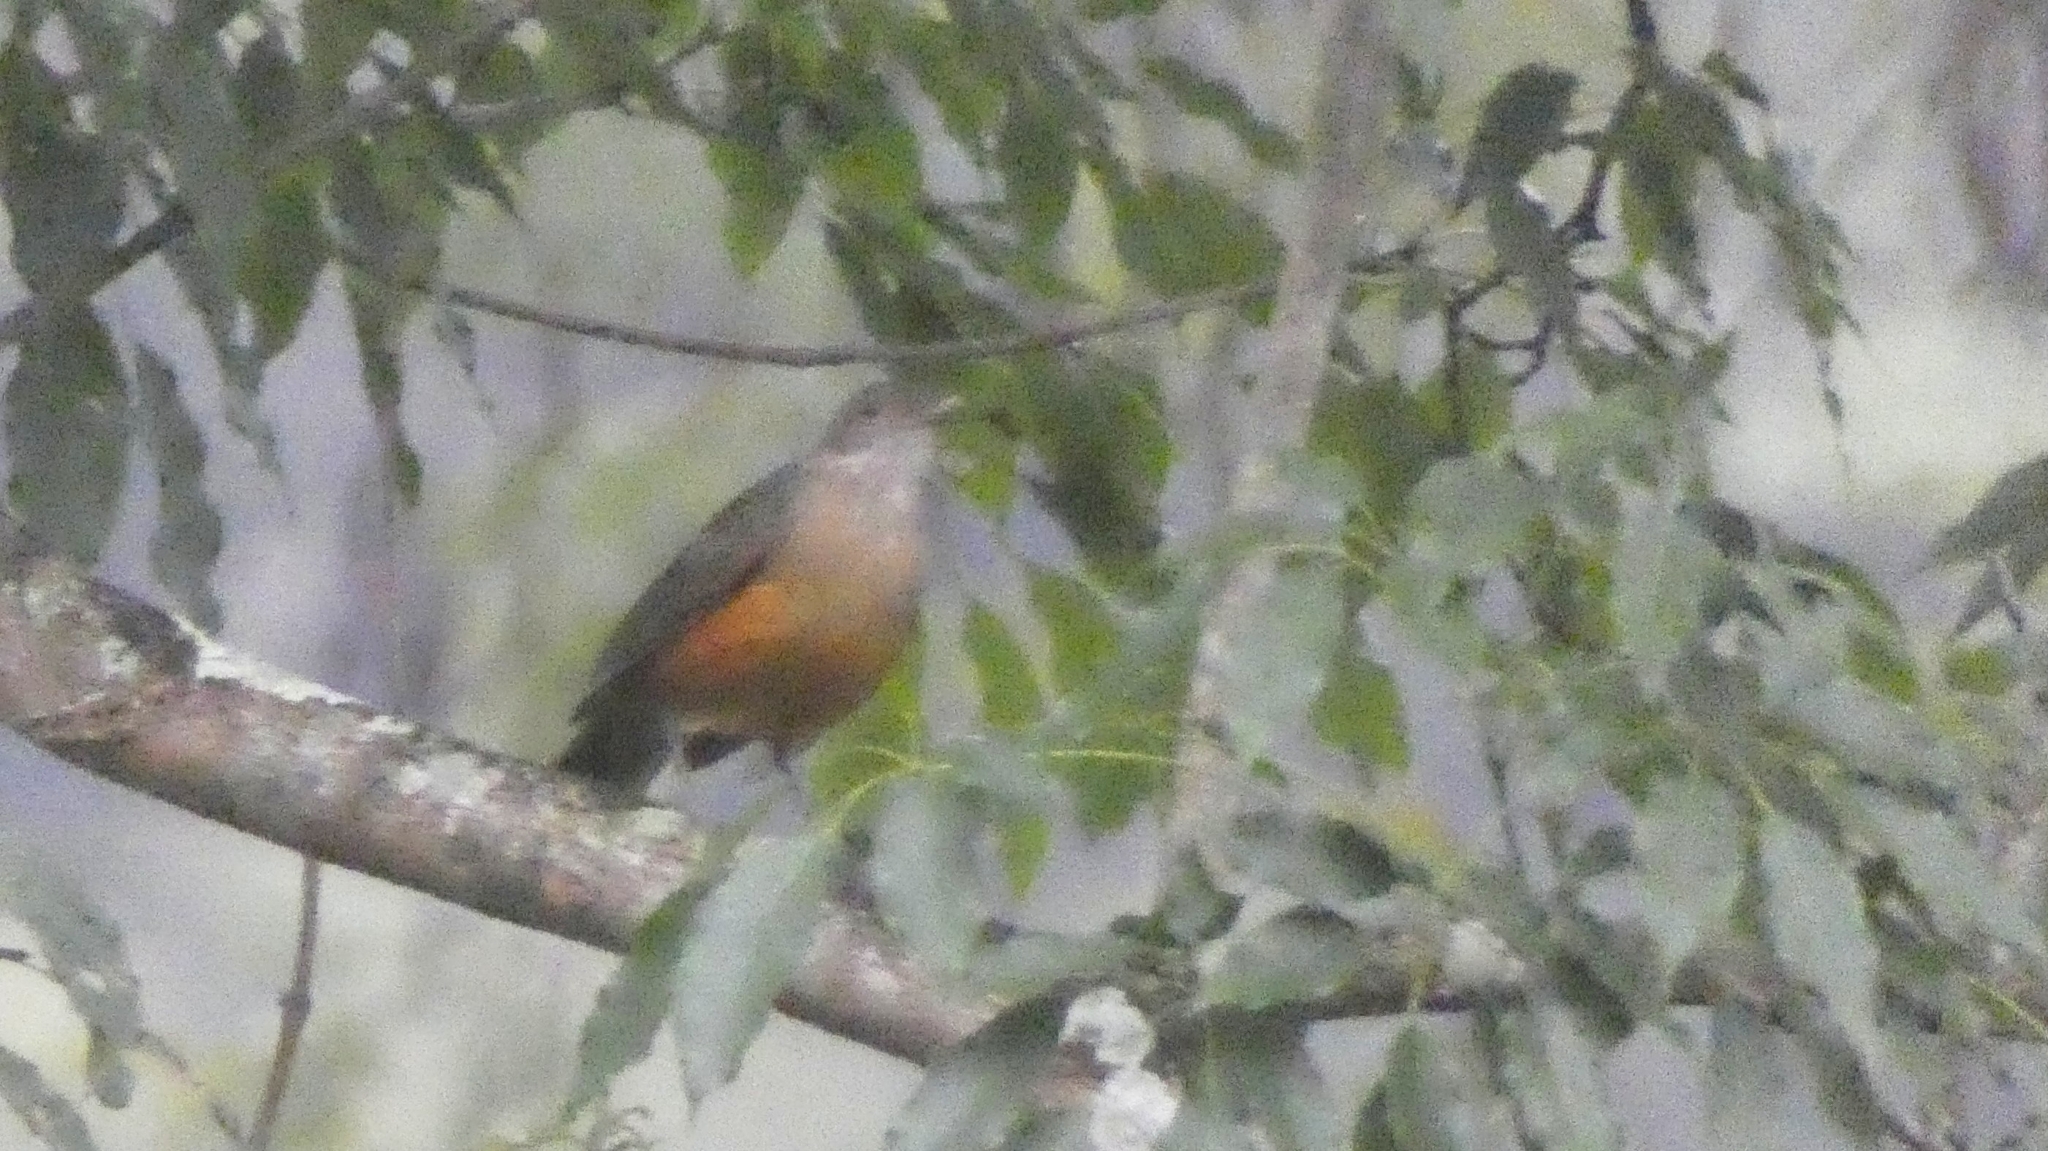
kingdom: Animalia
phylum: Chordata
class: Aves
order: Passeriformes
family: Turdidae
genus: Turdus
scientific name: Turdus rufiventris
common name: Rufous-bellied thrush
